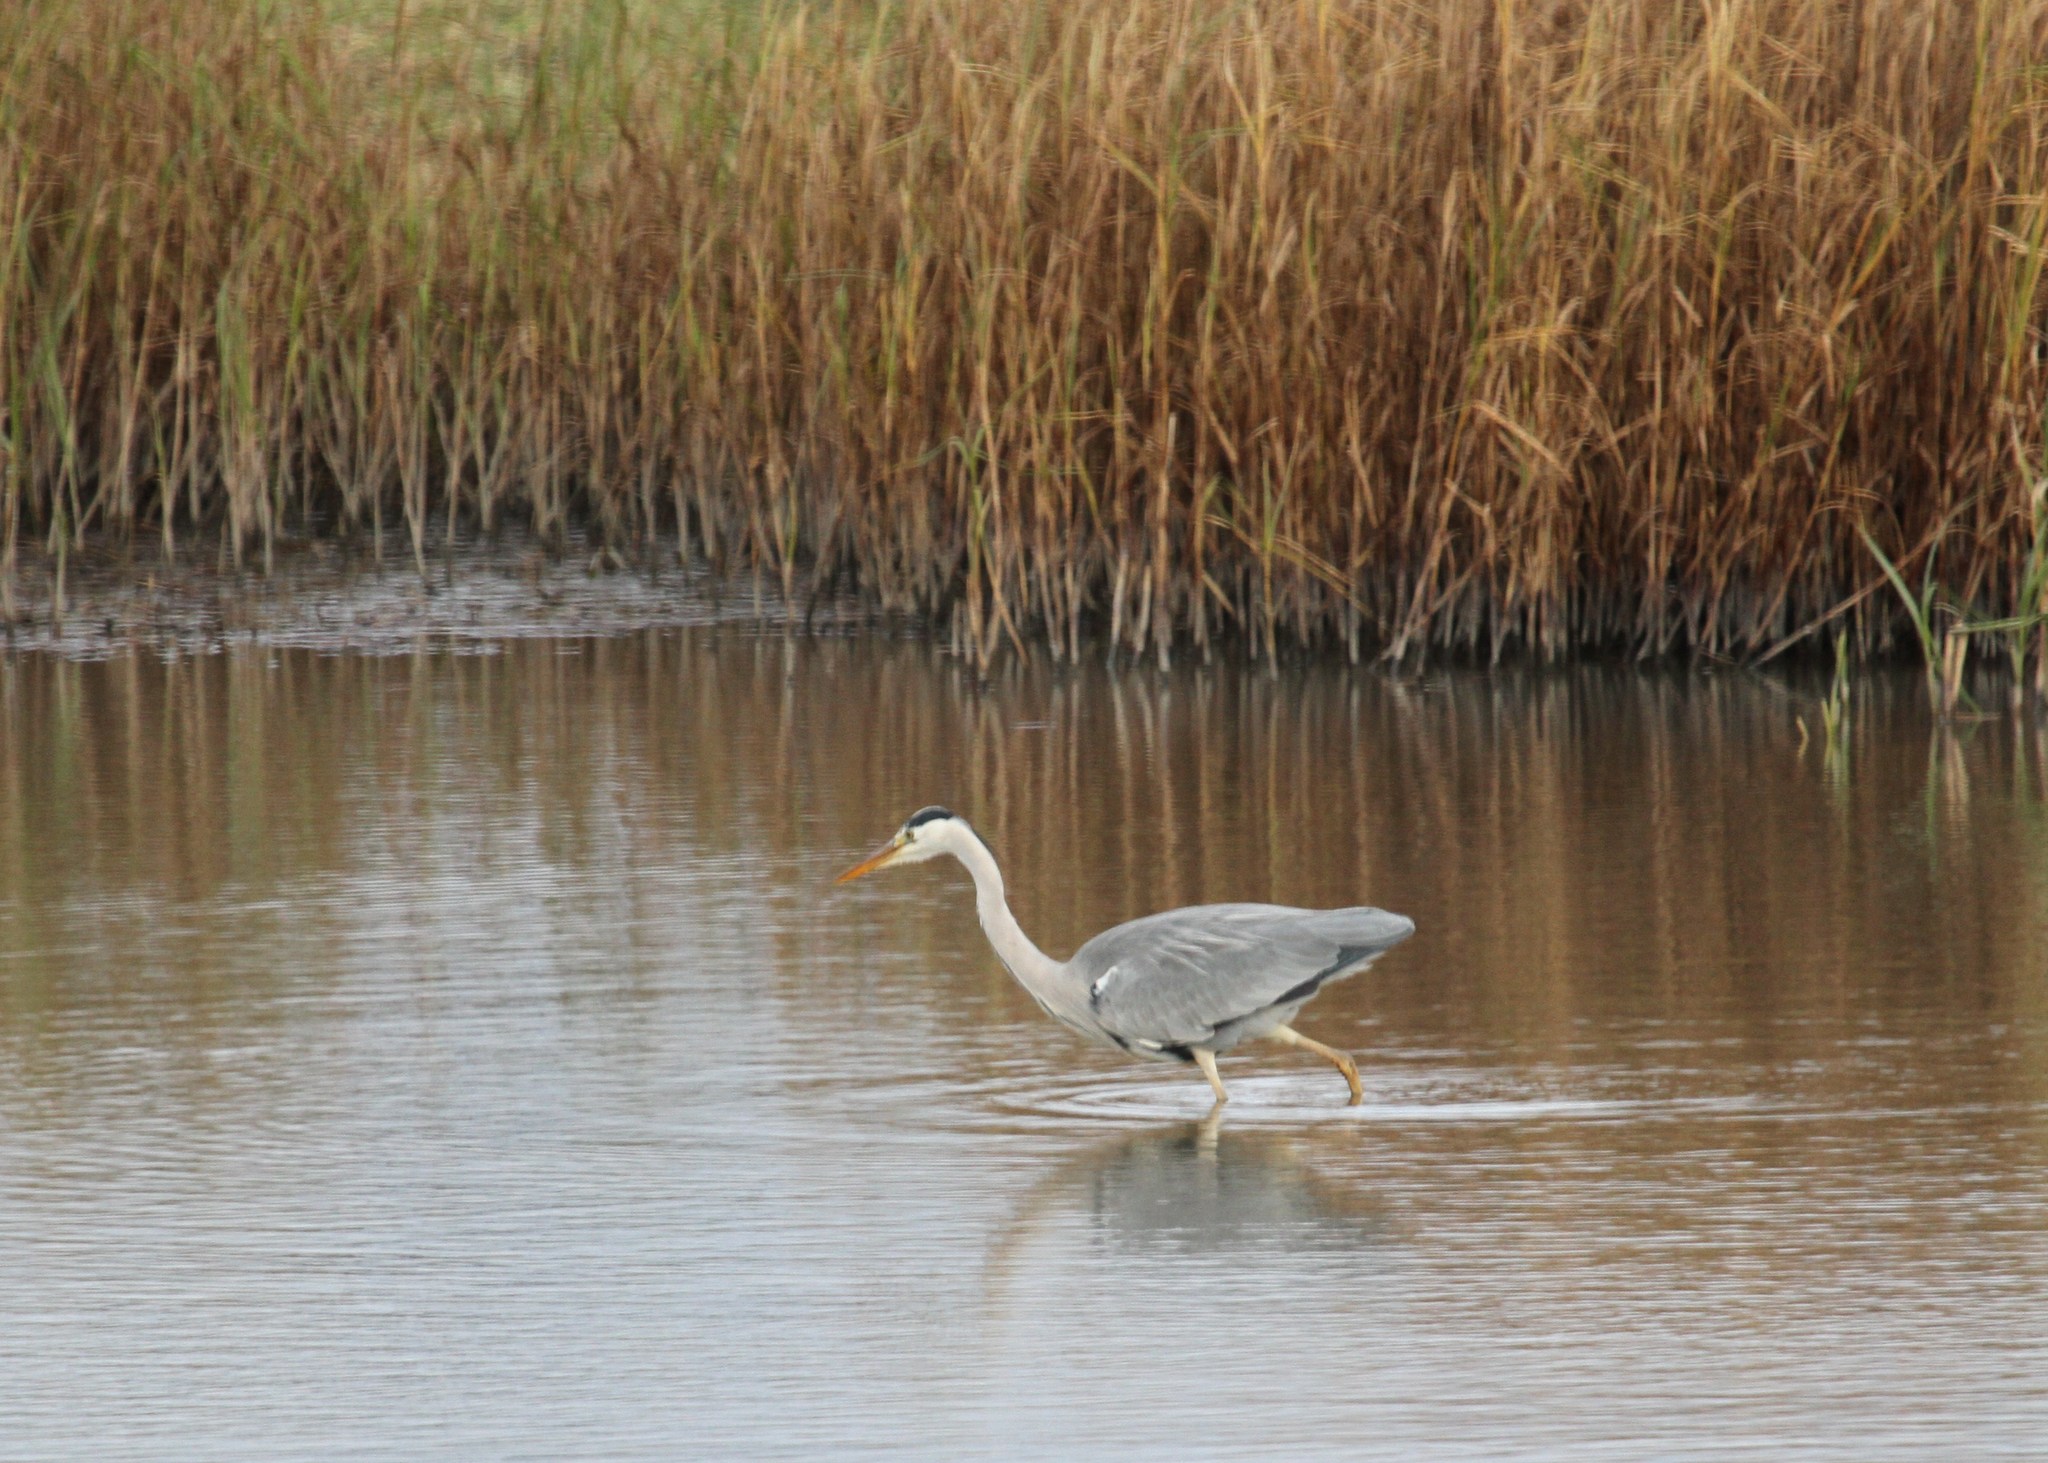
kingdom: Animalia
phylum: Chordata
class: Aves
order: Pelecaniformes
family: Ardeidae
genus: Ardea
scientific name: Ardea cinerea
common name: Grey heron
